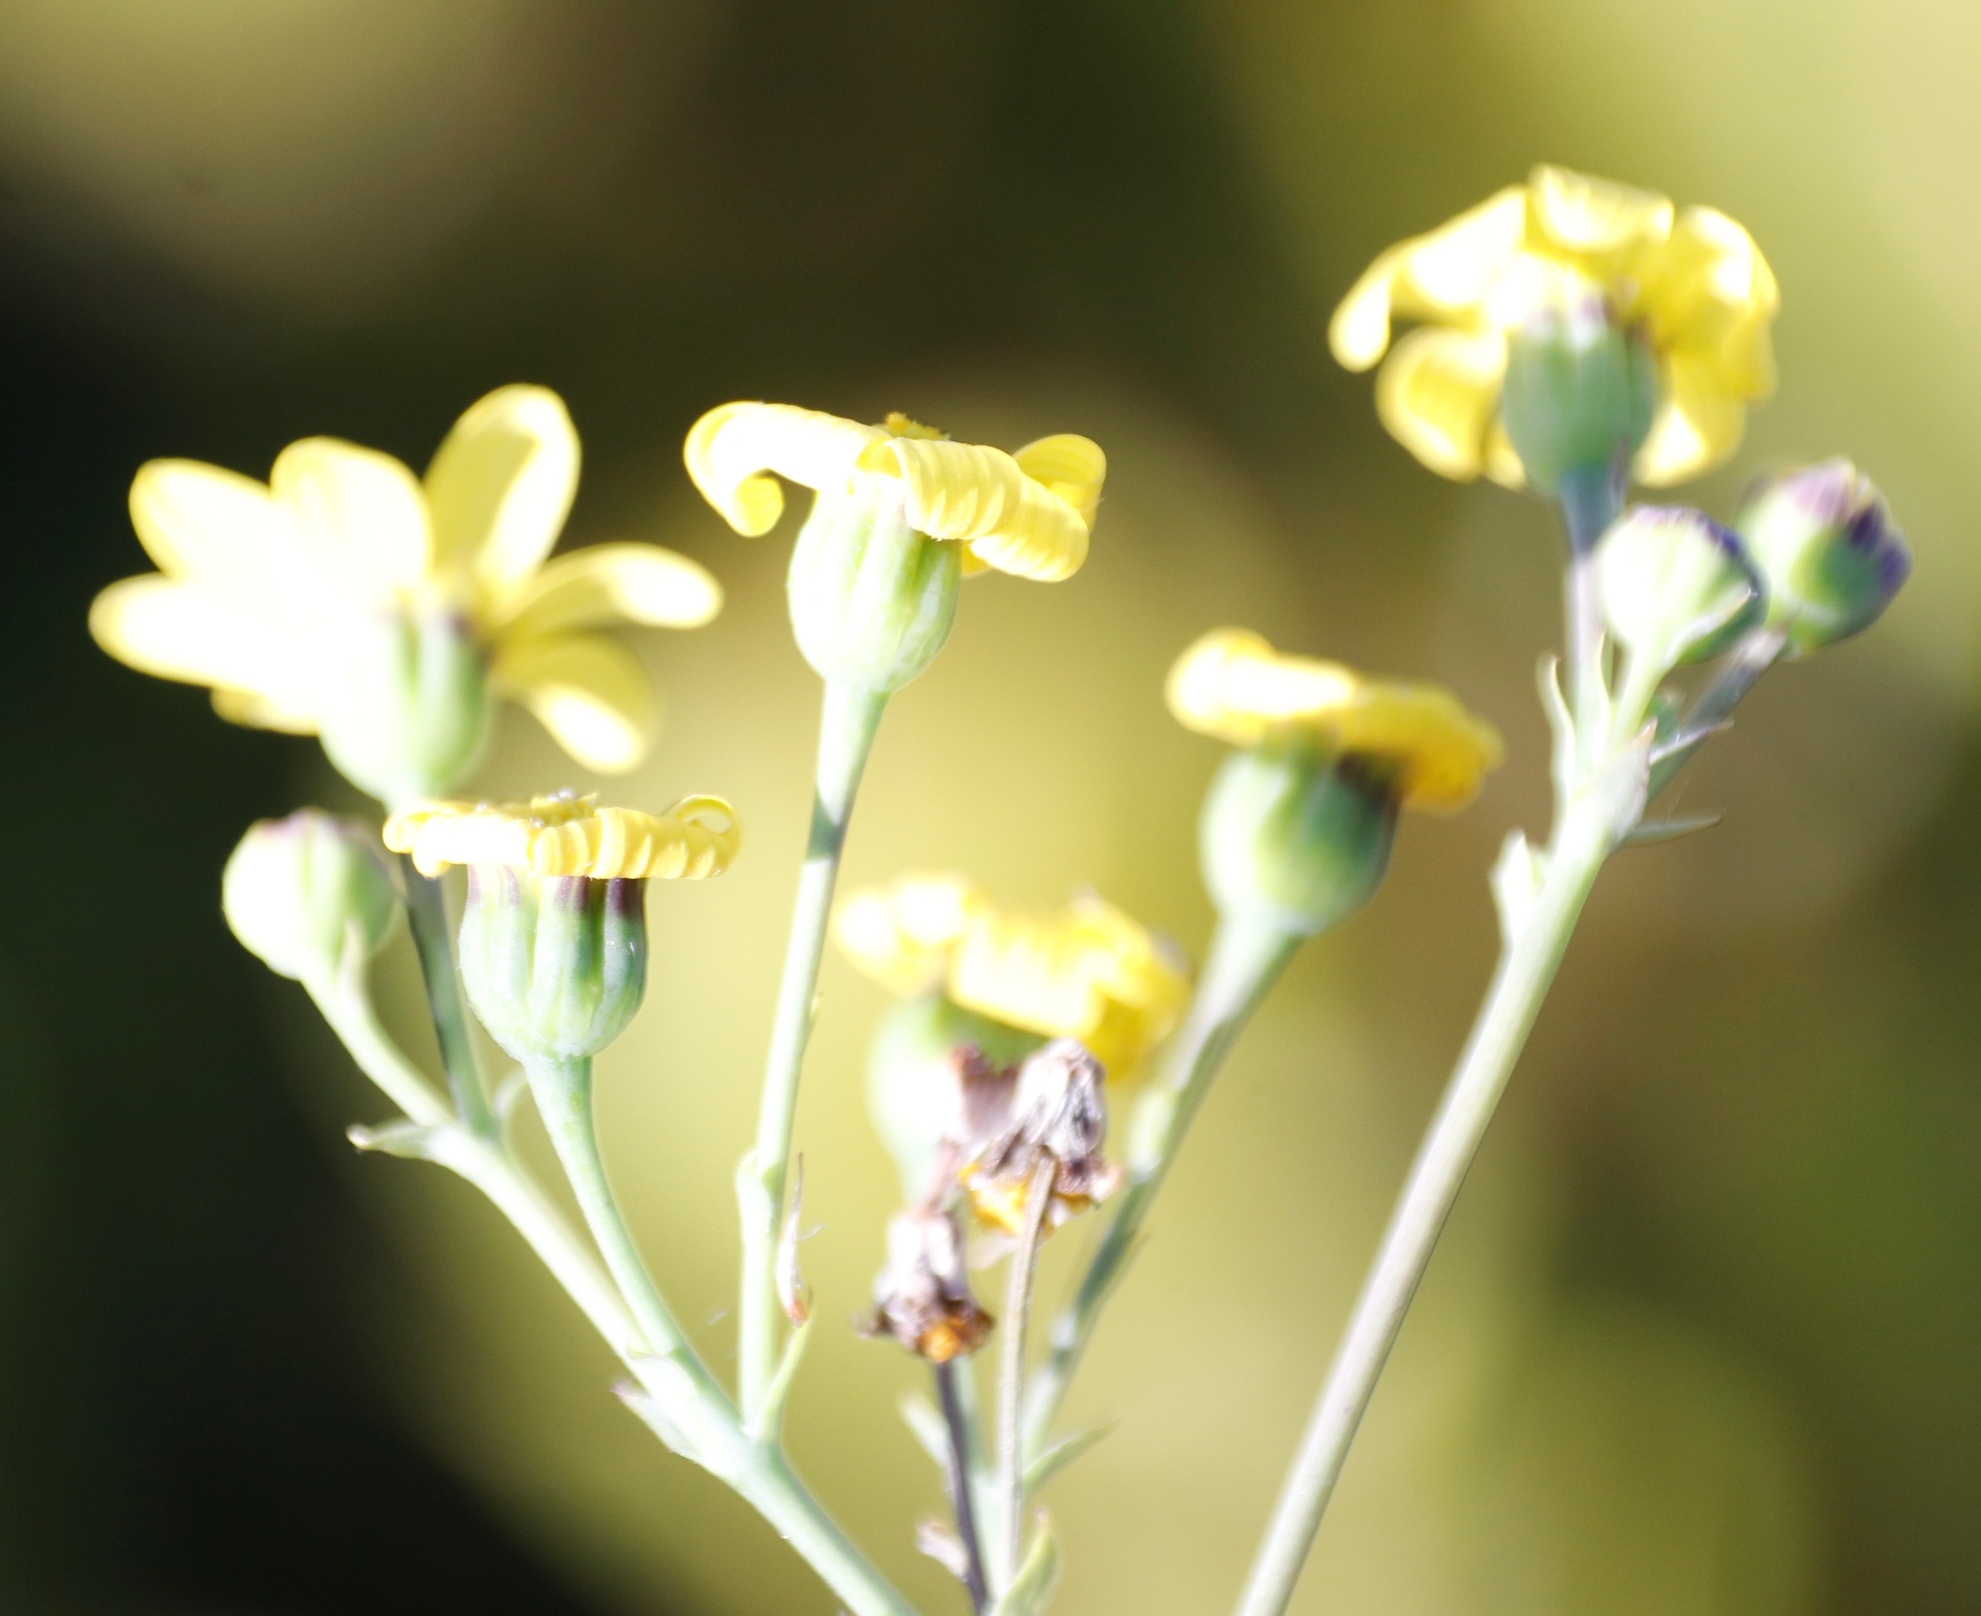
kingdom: Plantae
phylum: Tracheophyta
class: Magnoliopsida
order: Asterales
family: Asteraceae
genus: Othonna
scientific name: Othonna quinquedentata
